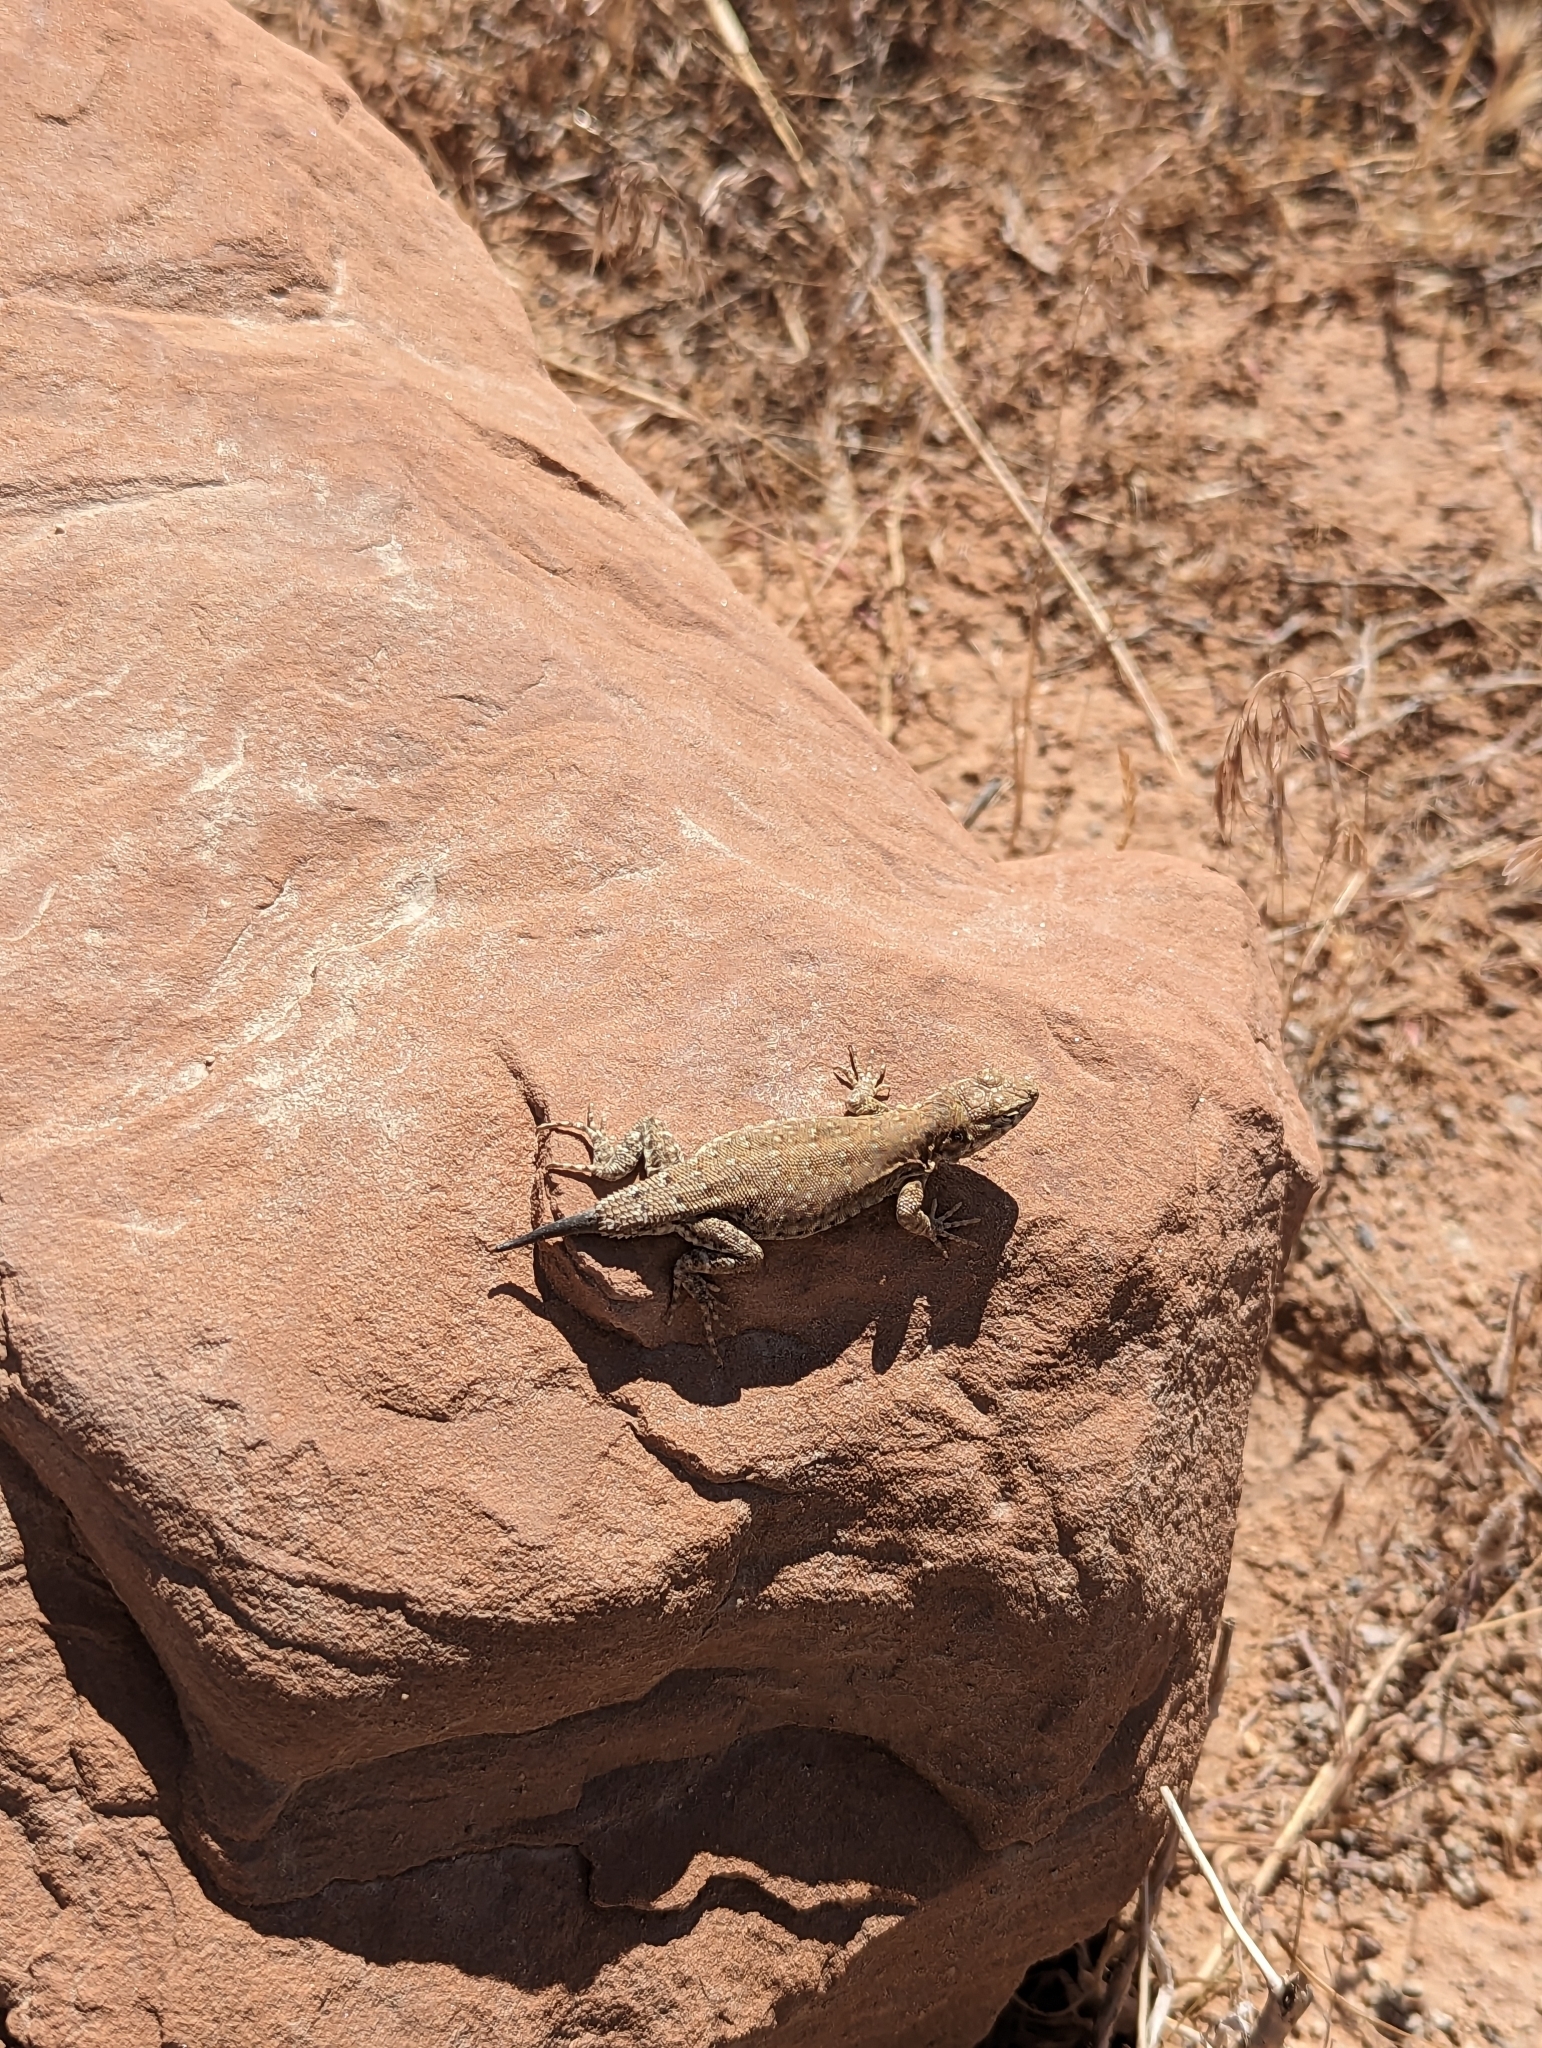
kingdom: Animalia
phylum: Chordata
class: Squamata
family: Phrynosomatidae
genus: Uta
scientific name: Uta stansburiana
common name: Side-blotched lizard
